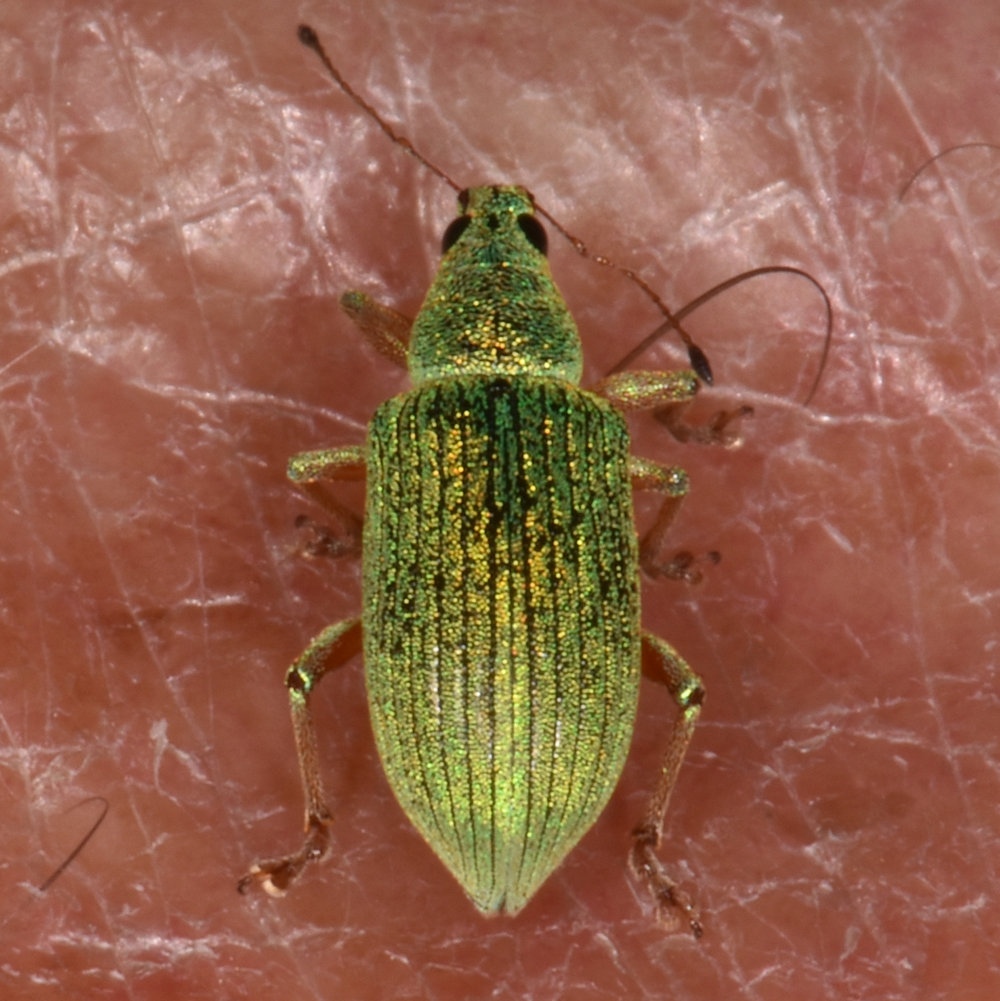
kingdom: Animalia
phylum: Arthropoda
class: Insecta
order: Coleoptera
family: Curculionidae
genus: Polydrusus
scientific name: Polydrusus formosus
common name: Weevil
